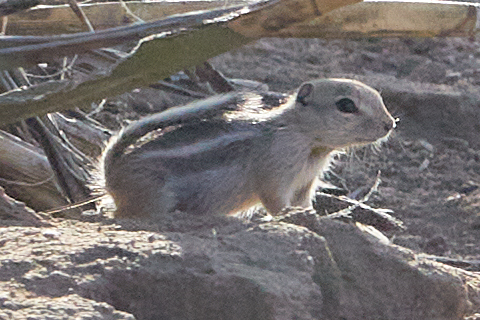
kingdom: Animalia
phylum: Chordata
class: Mammalia
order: Rodentia
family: Sciuridae
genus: Ammospermophilus
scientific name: Ammospermophilus leucurus
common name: White-tailed antelope squirrel
